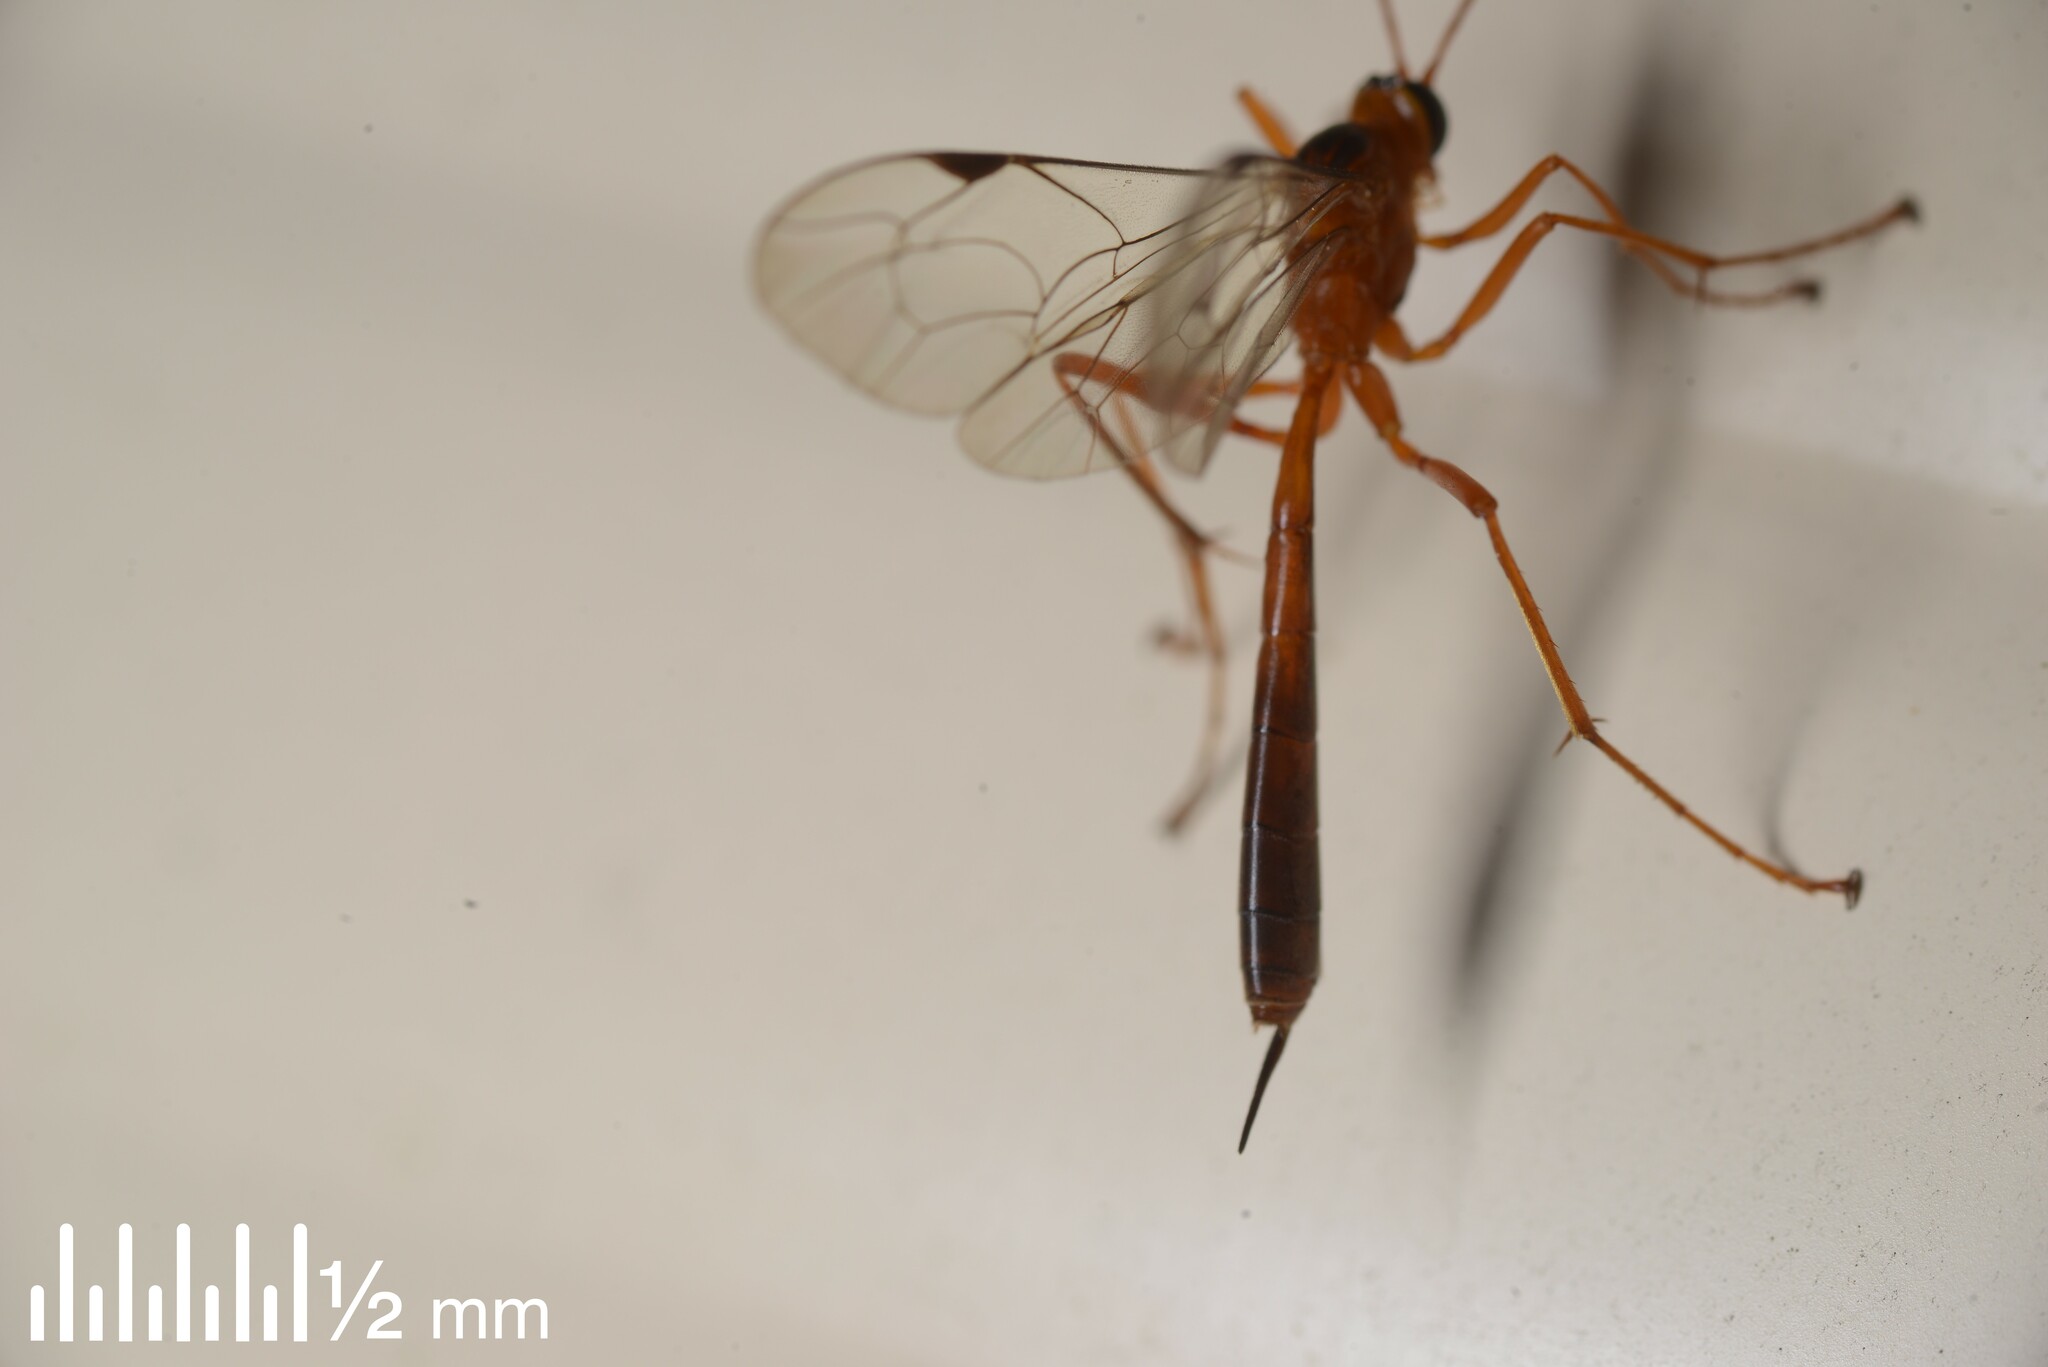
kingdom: Animalia
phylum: Arthropoda
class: Insecta
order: Hymenoptera
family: Ichneumonidae
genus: Netelia
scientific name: Netelia ephippiata
